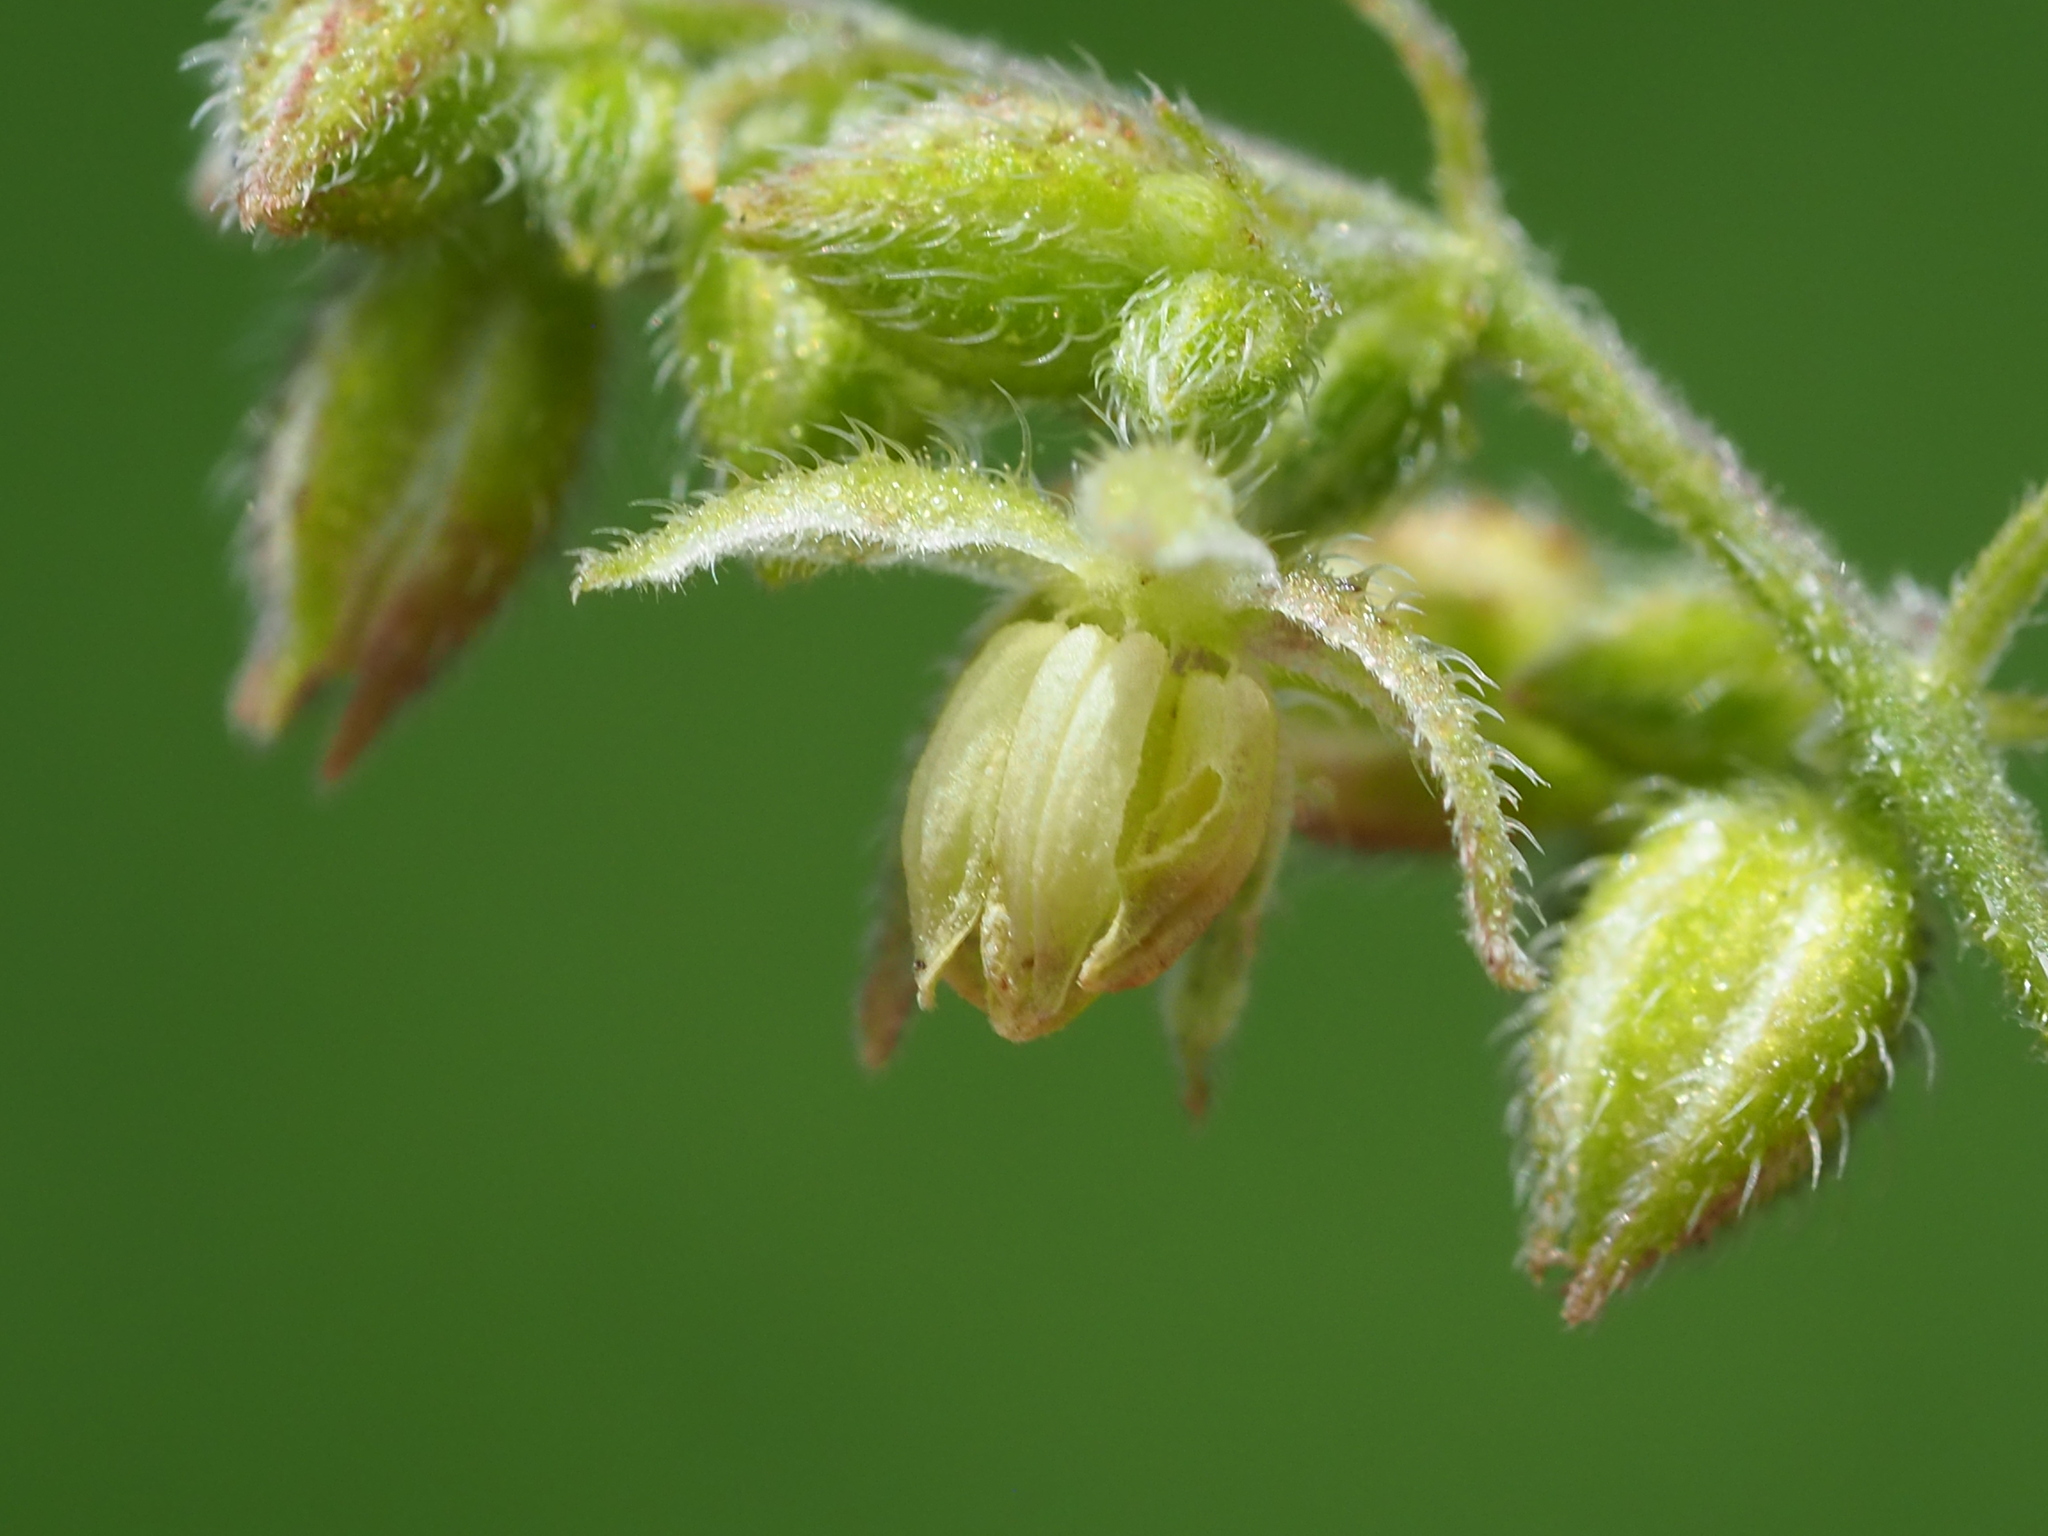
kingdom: Plantae
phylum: Tracheophyta
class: Magnoliopsida
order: Rosales
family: Cannabaceae
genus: Humulus
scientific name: Humulus scandens
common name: Japanese hop
